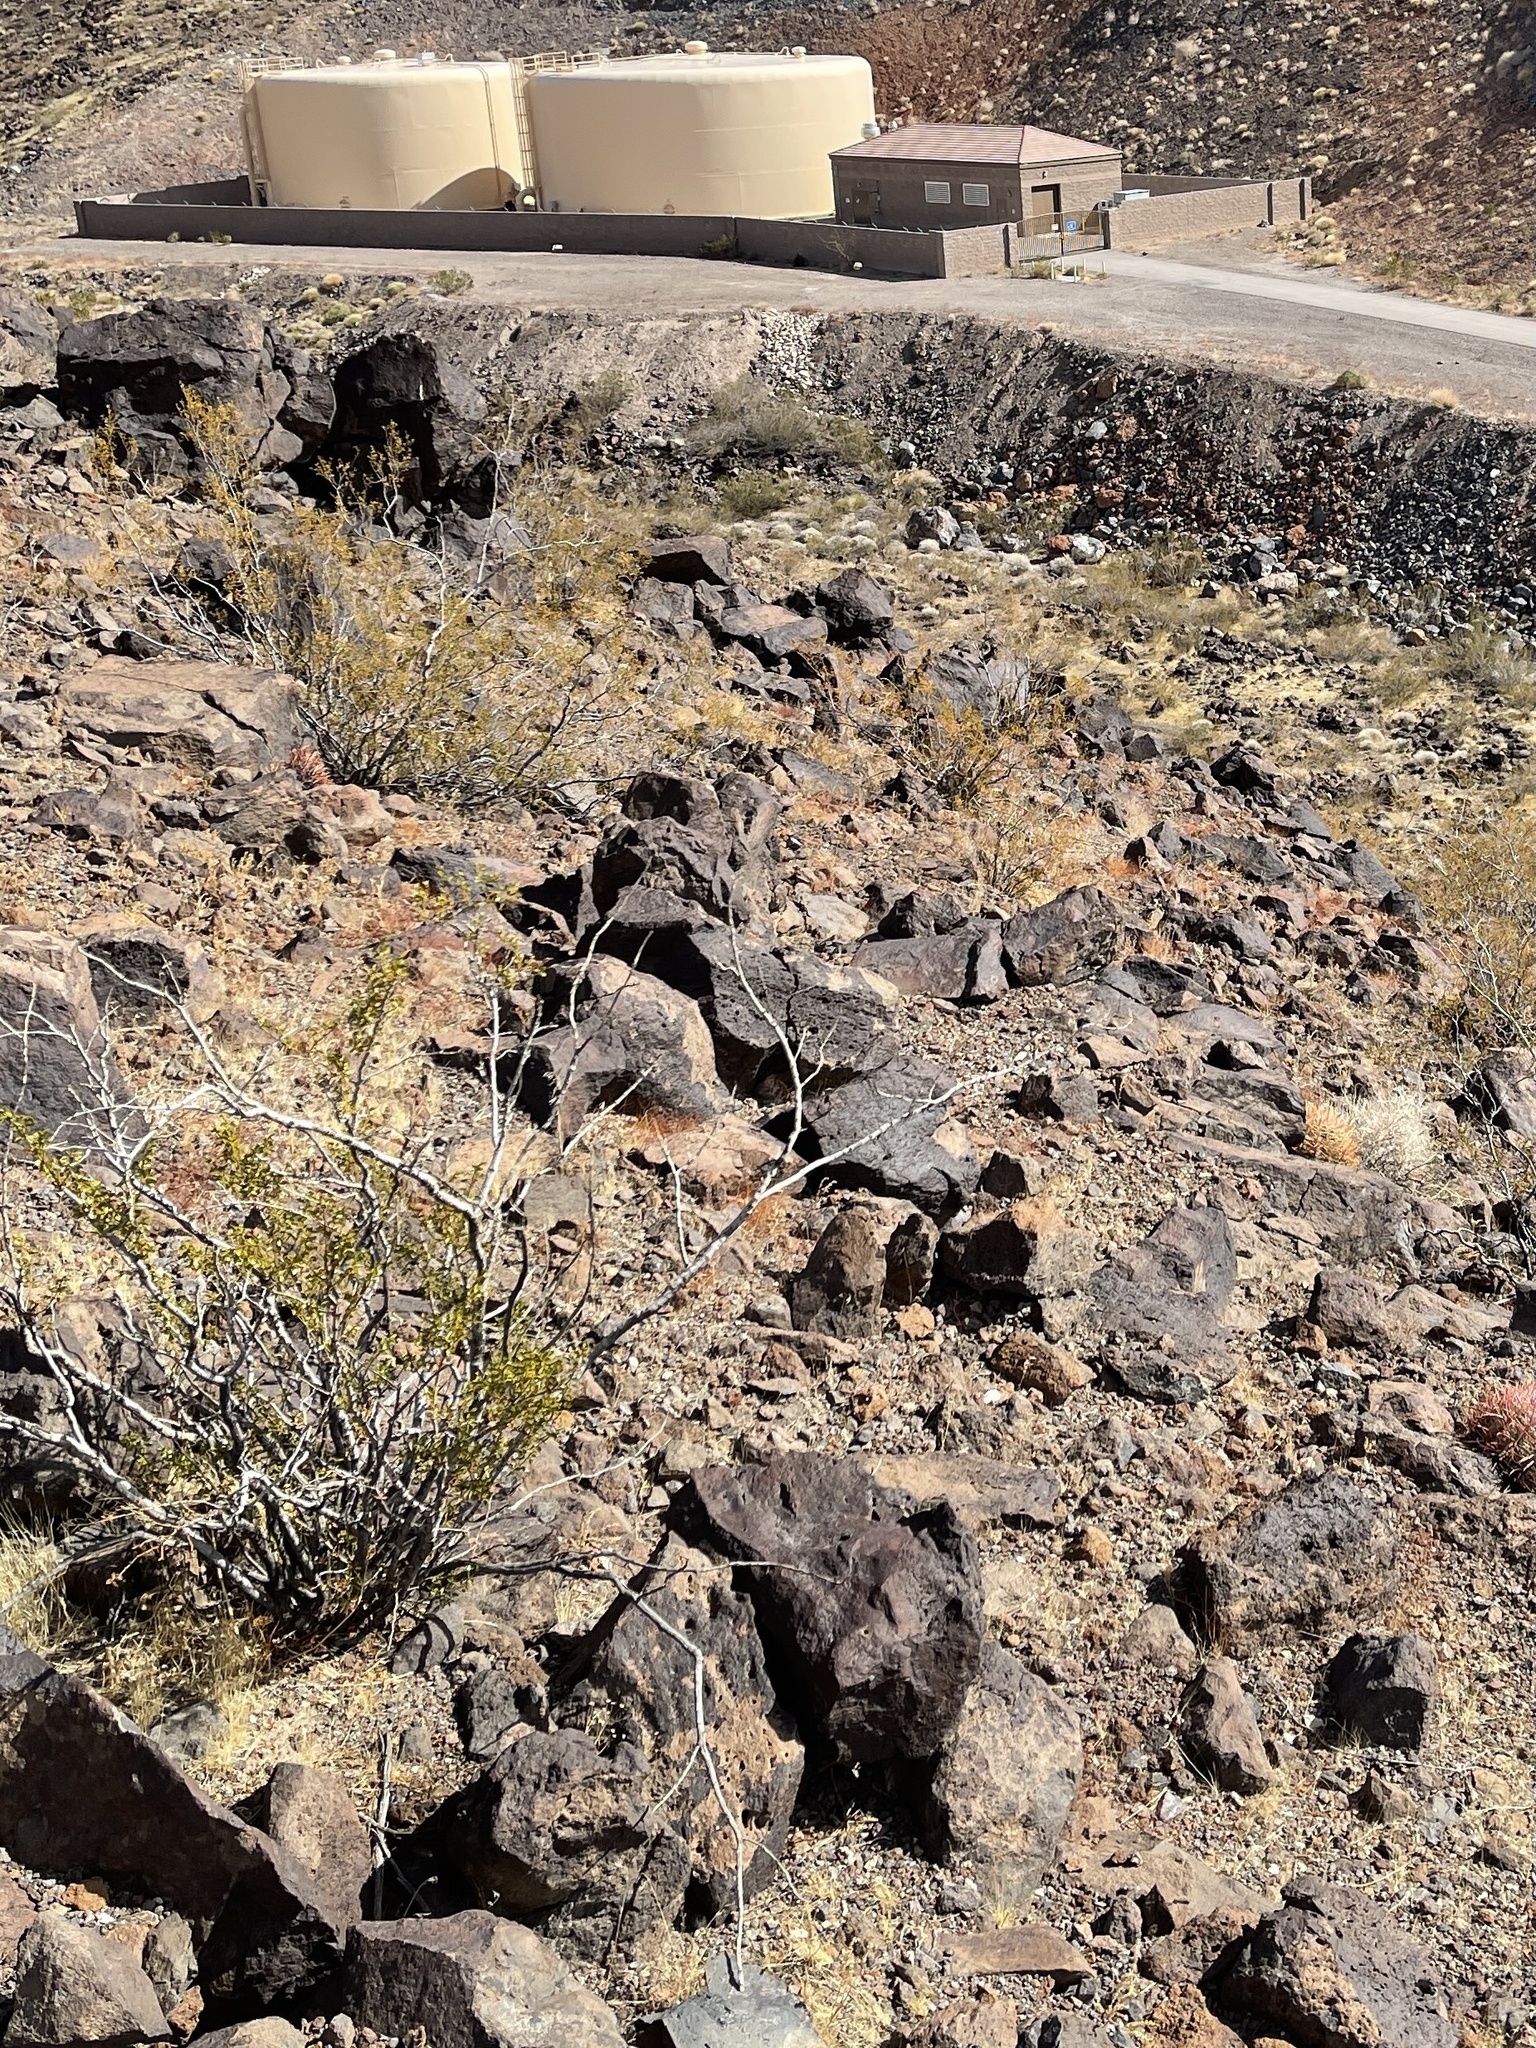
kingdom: Plantae
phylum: Tracheophyta
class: Magnoliopsida
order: Zygophyllales
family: Zygophyllaceae
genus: Larrea
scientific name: Larrea tridentata
